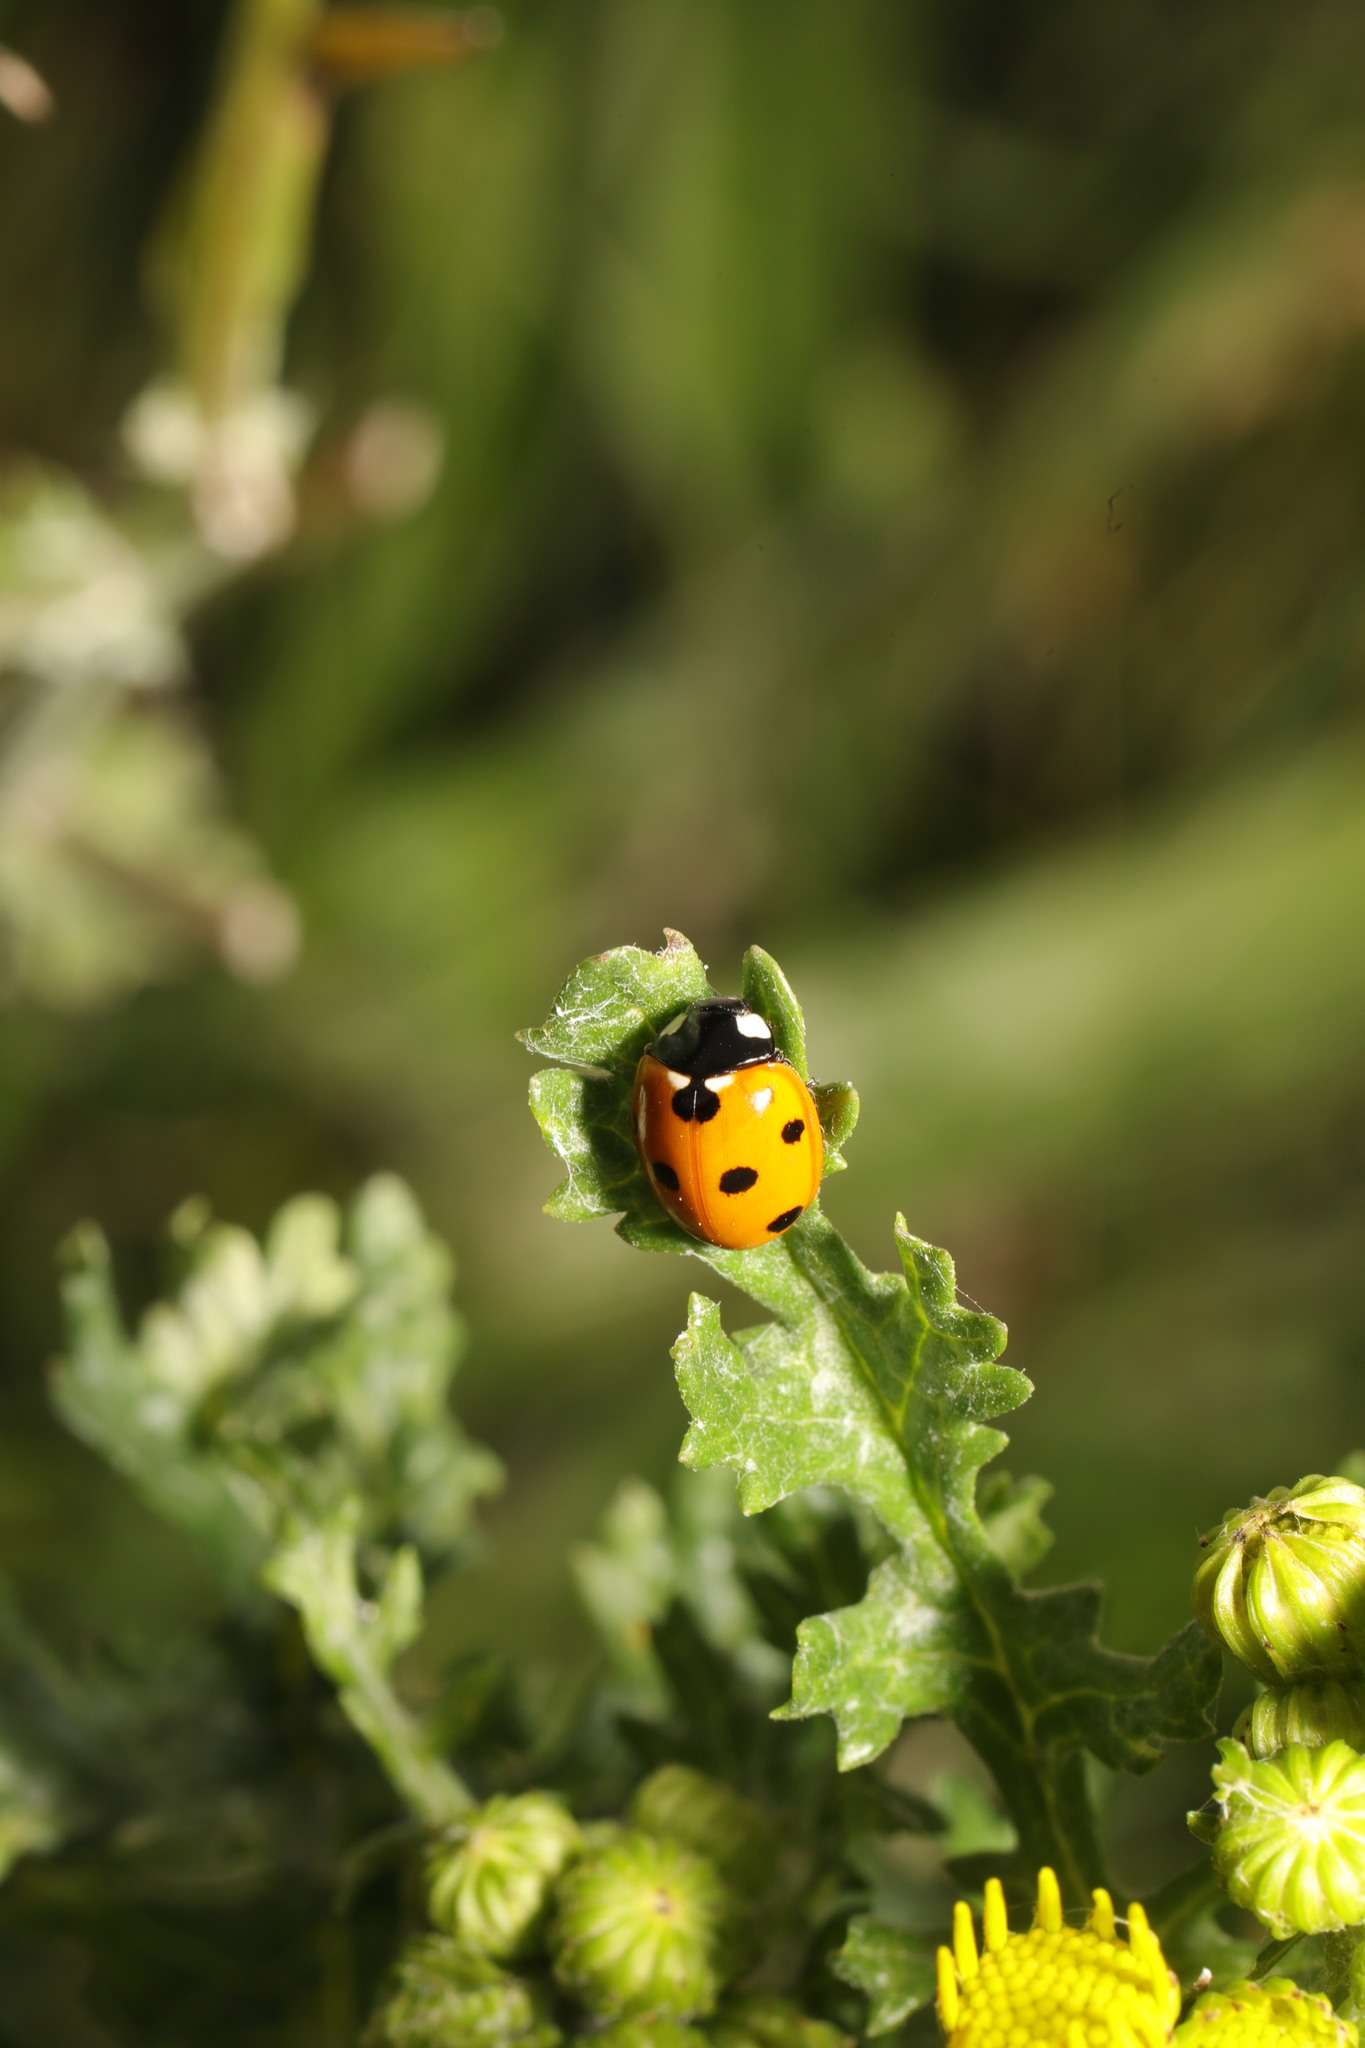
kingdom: Animalia
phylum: Arthropoda
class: Insecta
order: Coleoptera
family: Coccinellidae
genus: Coccinella
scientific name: Coccinella septempunctata
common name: Sevenspotted lady beetle
